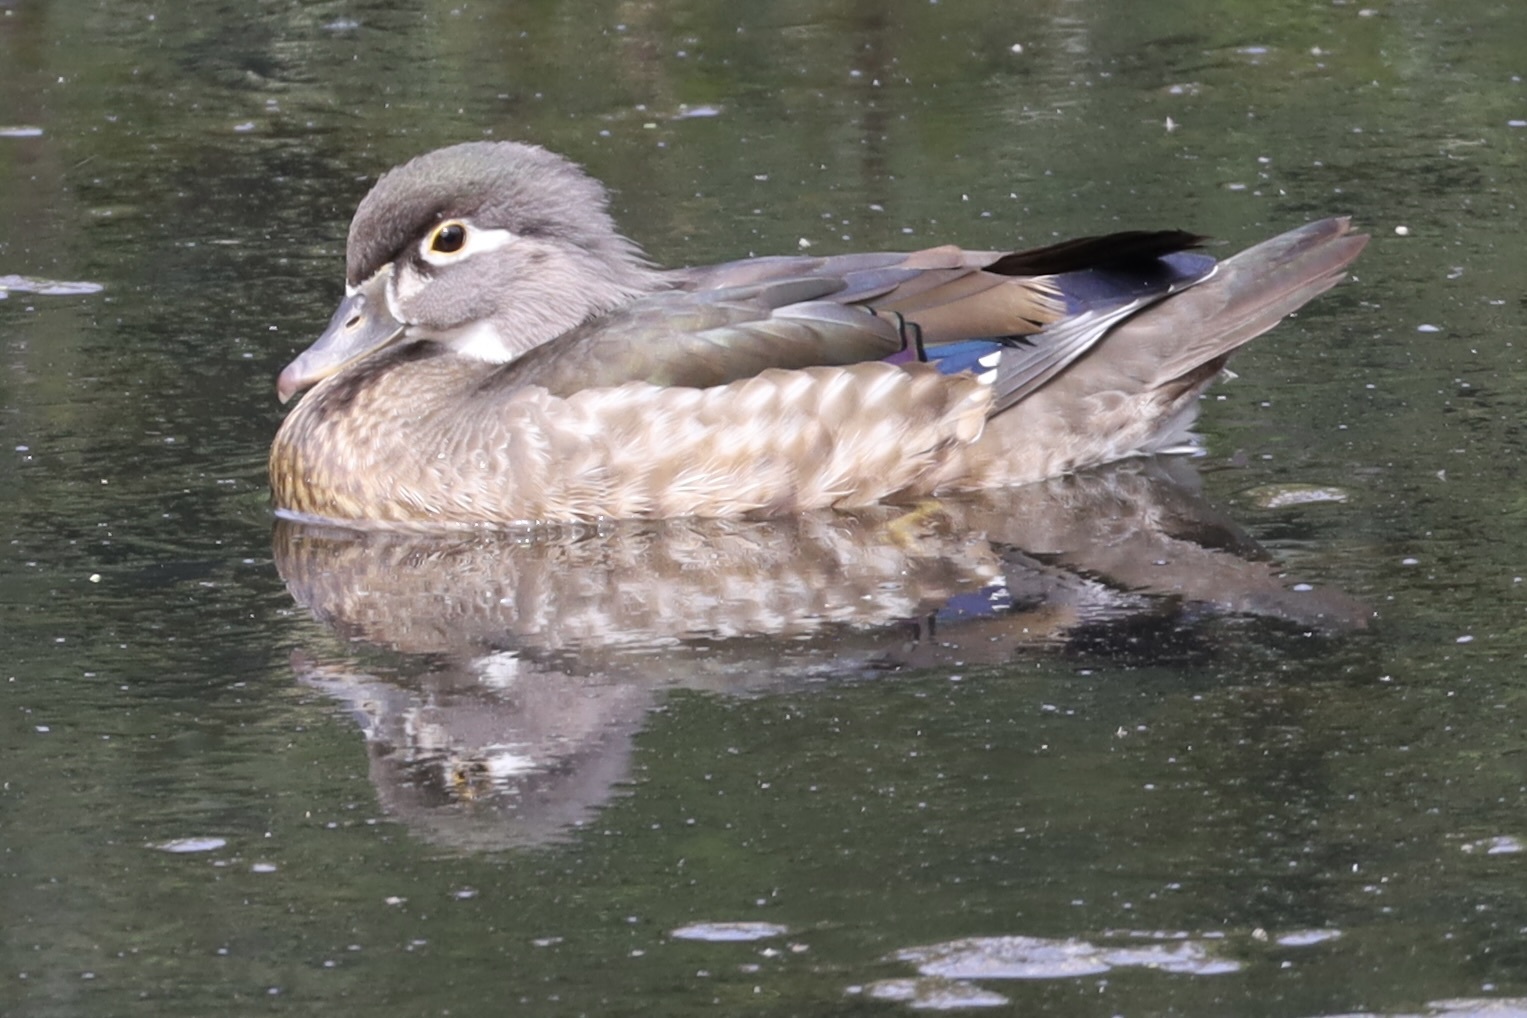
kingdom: Animalia
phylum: Chordata
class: Aves
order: Anseriformes
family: Anatidae
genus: Aix
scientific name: Aix sponsa
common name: Wood duck
